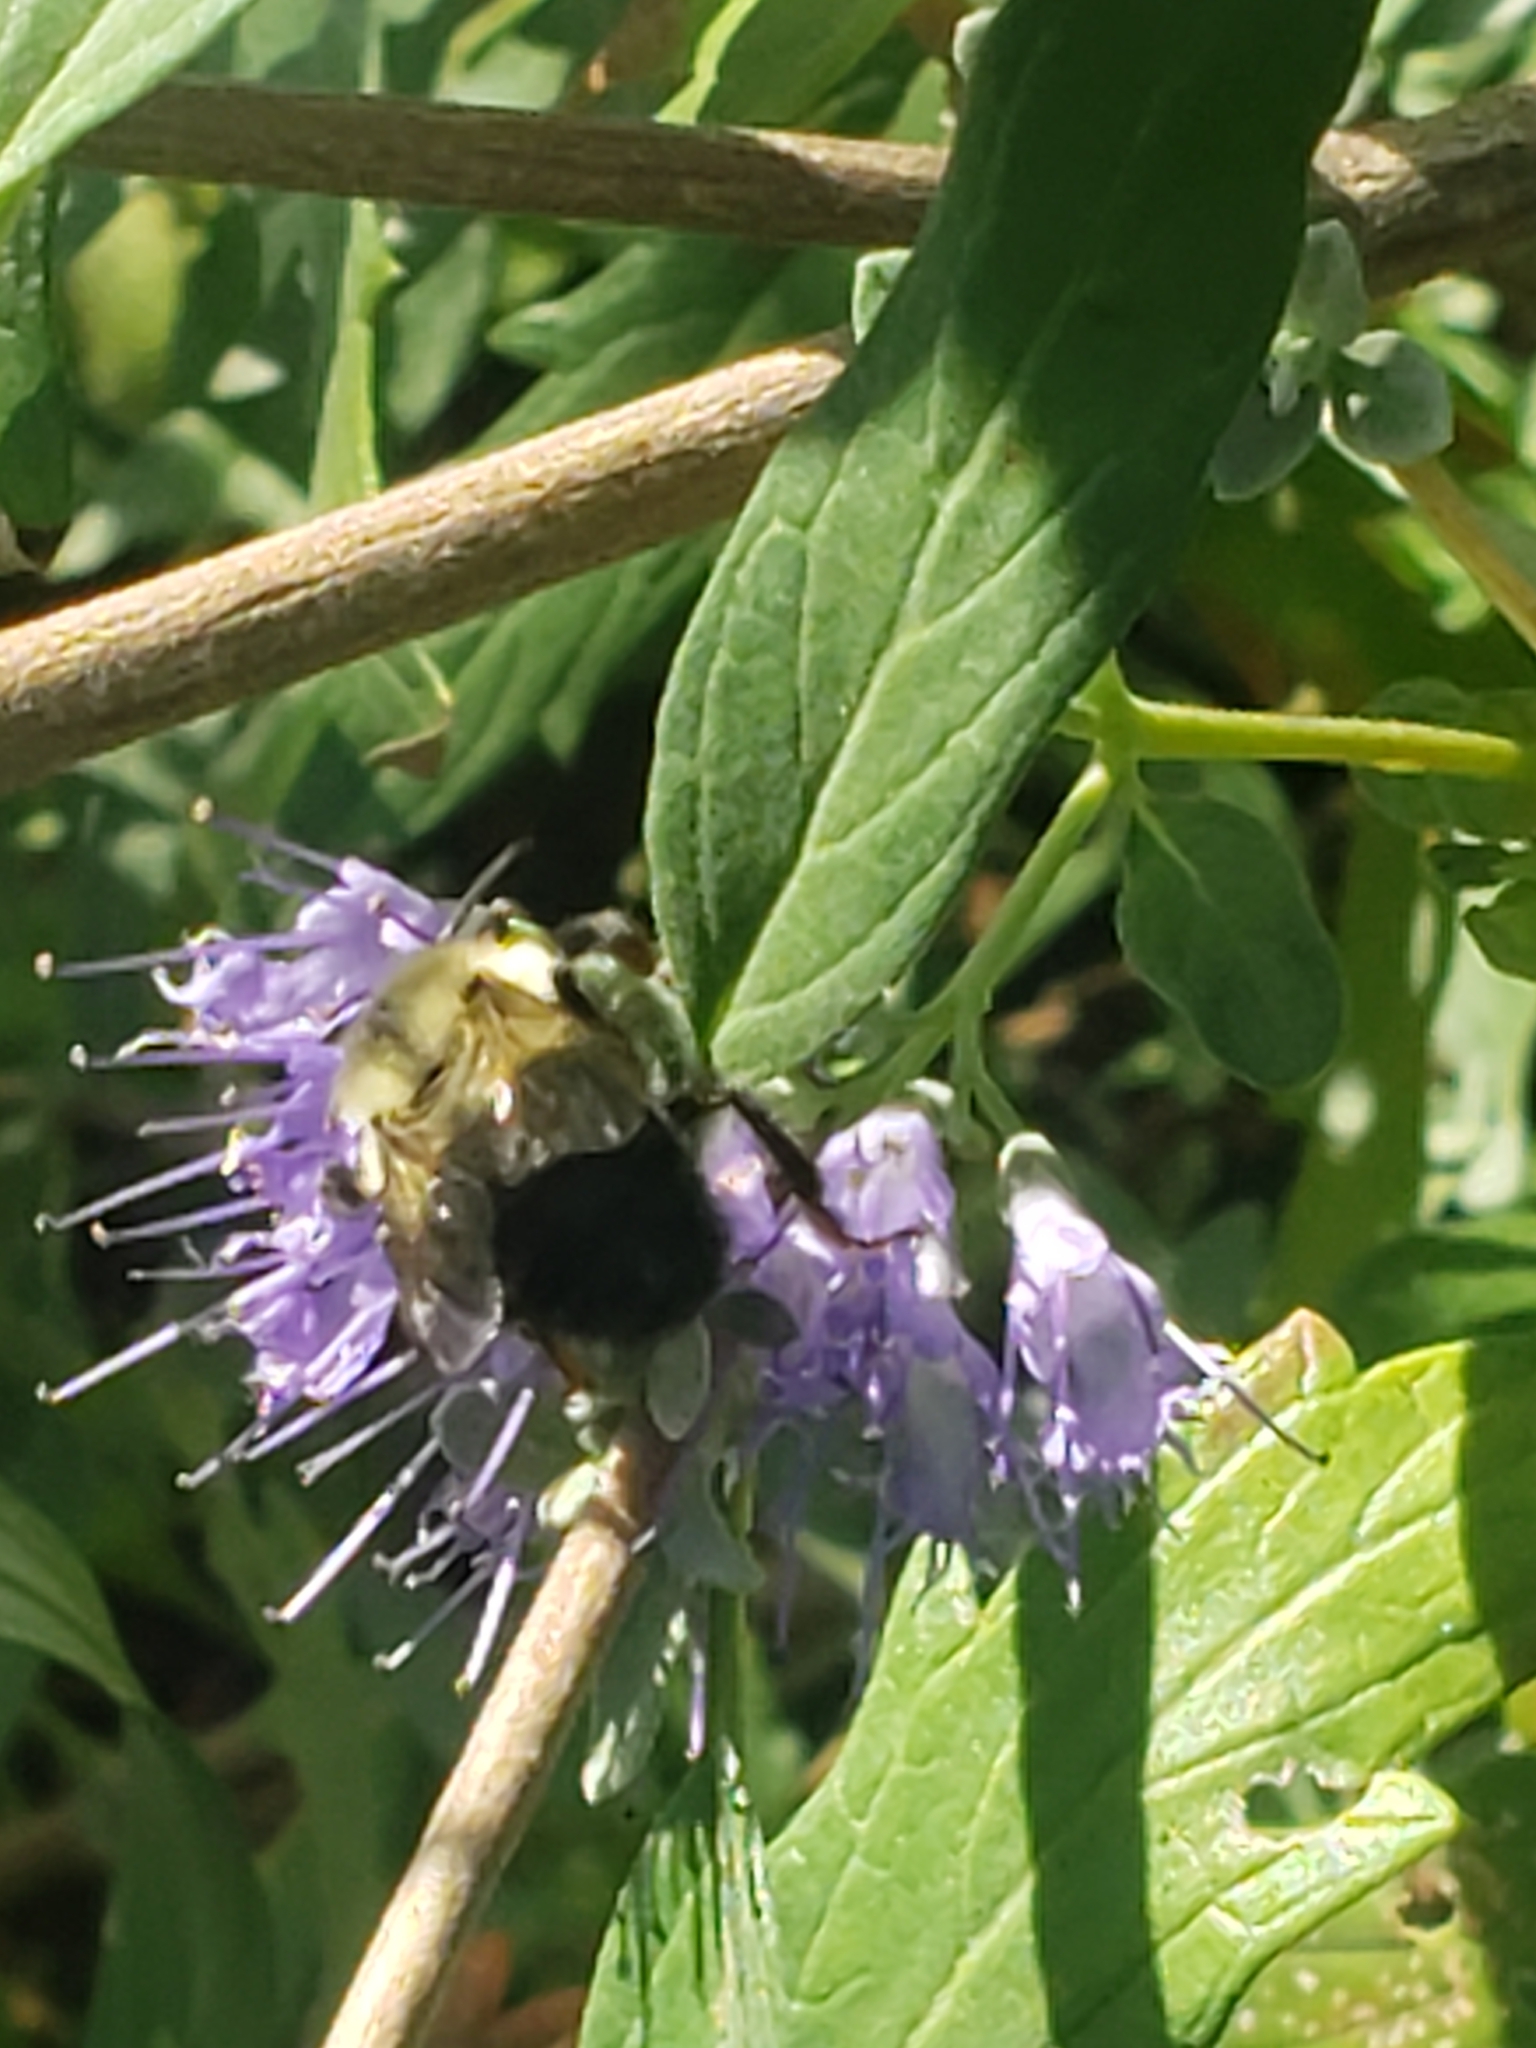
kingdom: Animalia
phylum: Arthropoda
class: Insecta
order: Hymenoptera
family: Apidae
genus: Bombus
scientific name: Bombus impatiens
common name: Common eastern bumble bee
